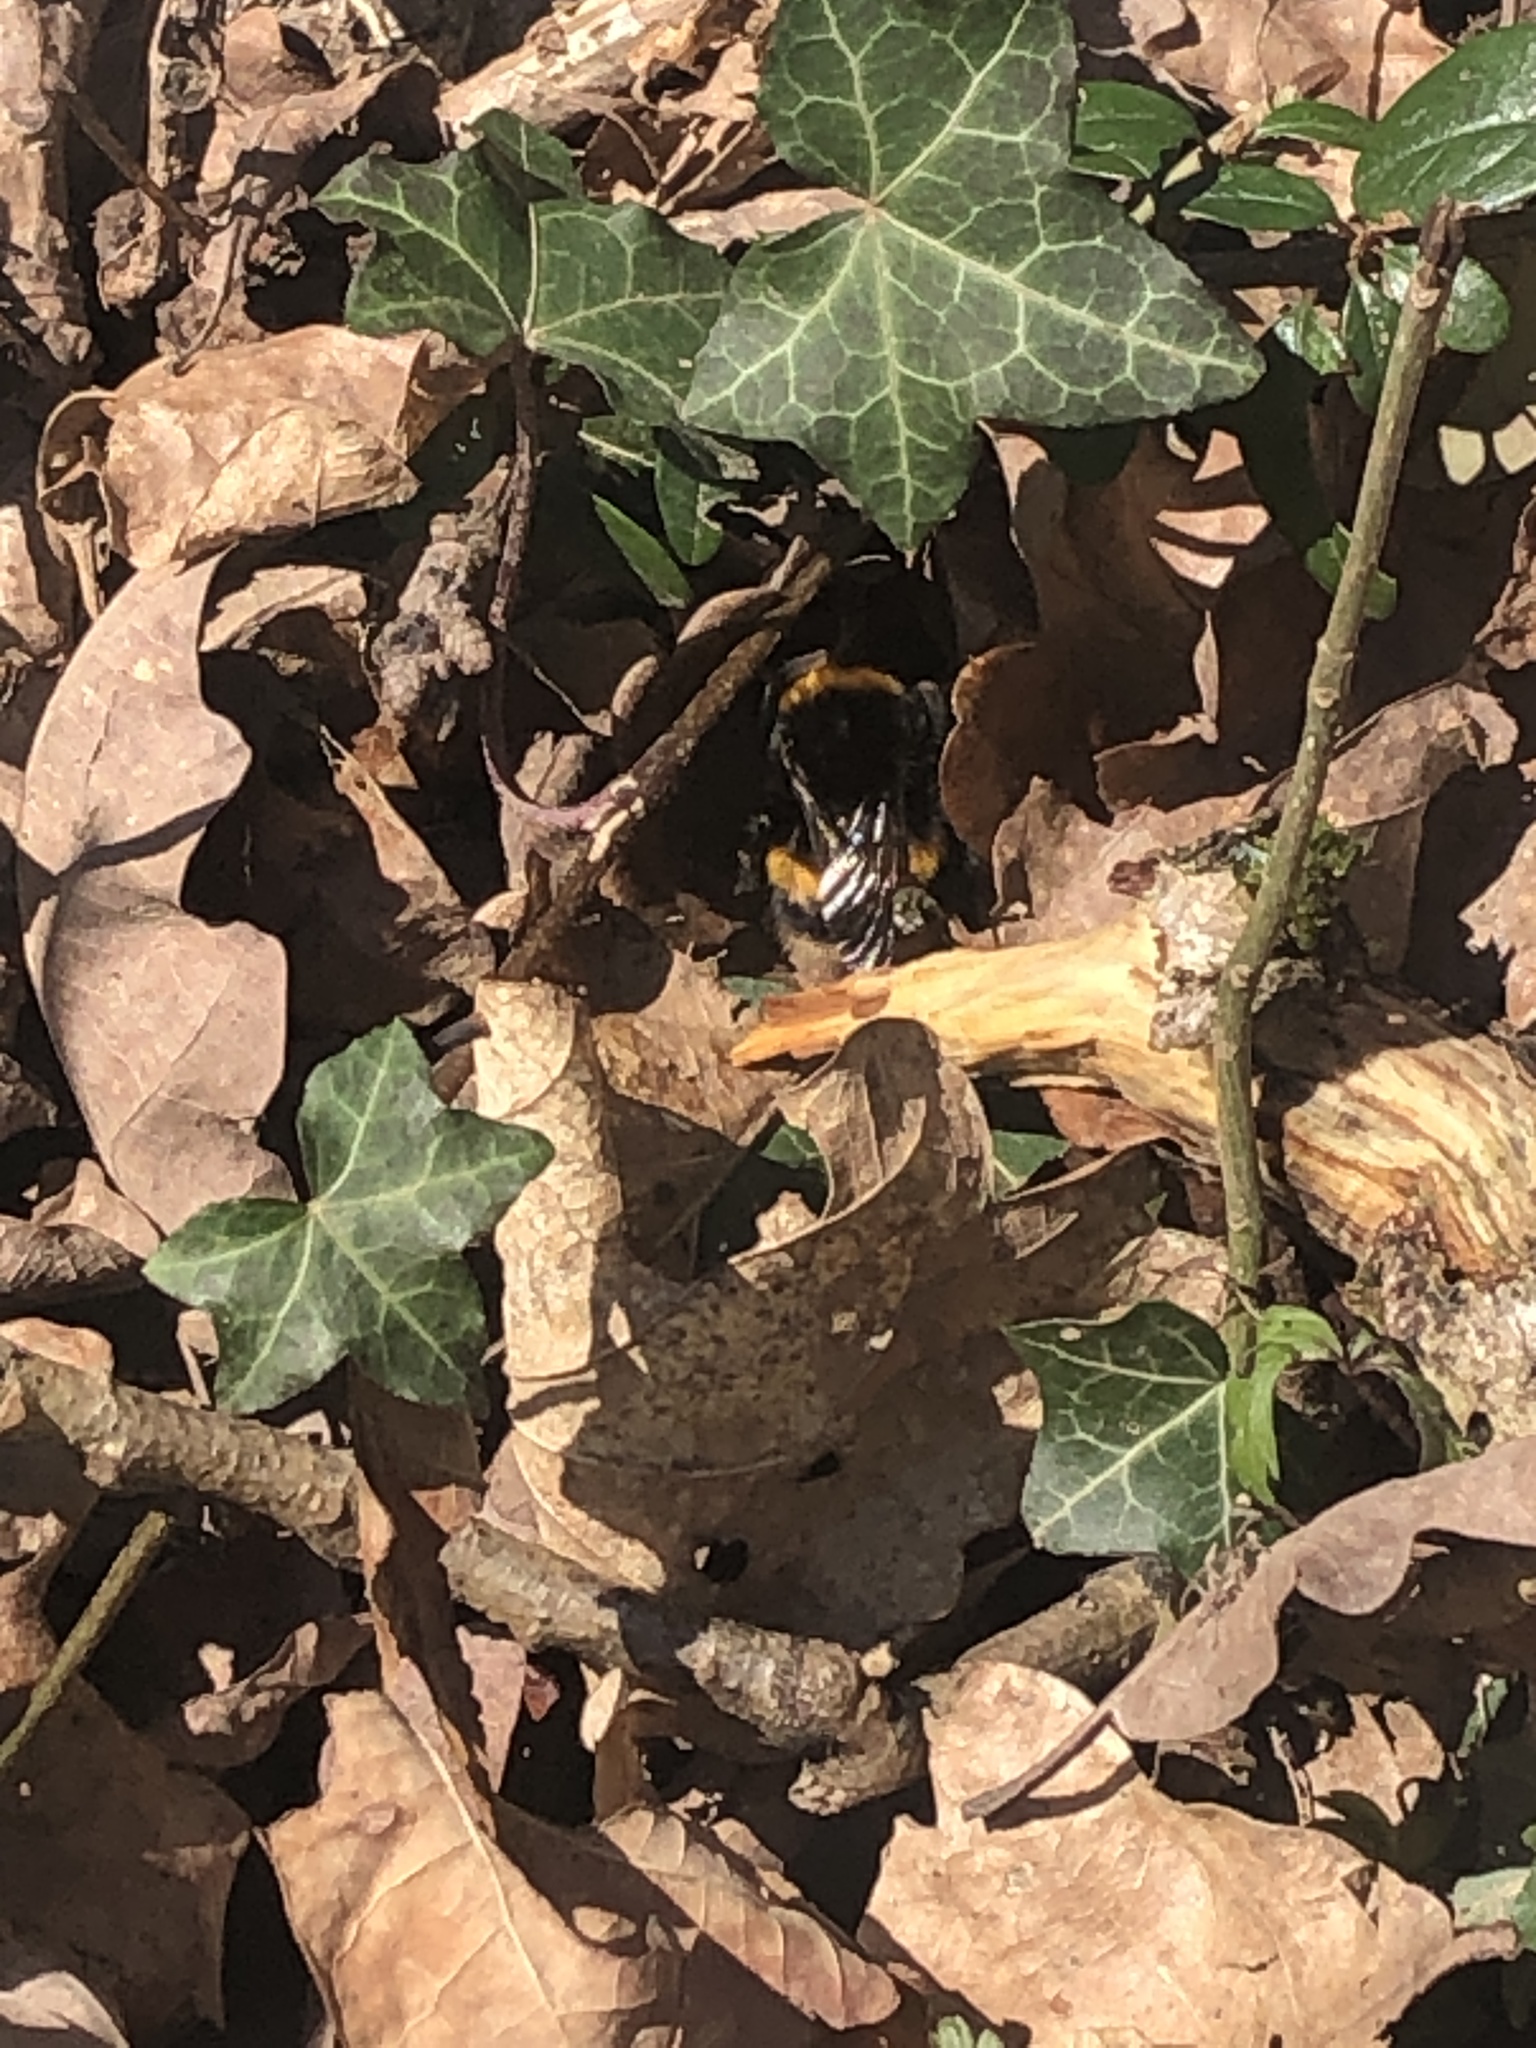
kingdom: Animalia
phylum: Arthropoda
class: Insecta
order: Hymenoptera
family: Apidae
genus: Bombus
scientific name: Bombus terrestris
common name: Buff-tailed bumblebee
